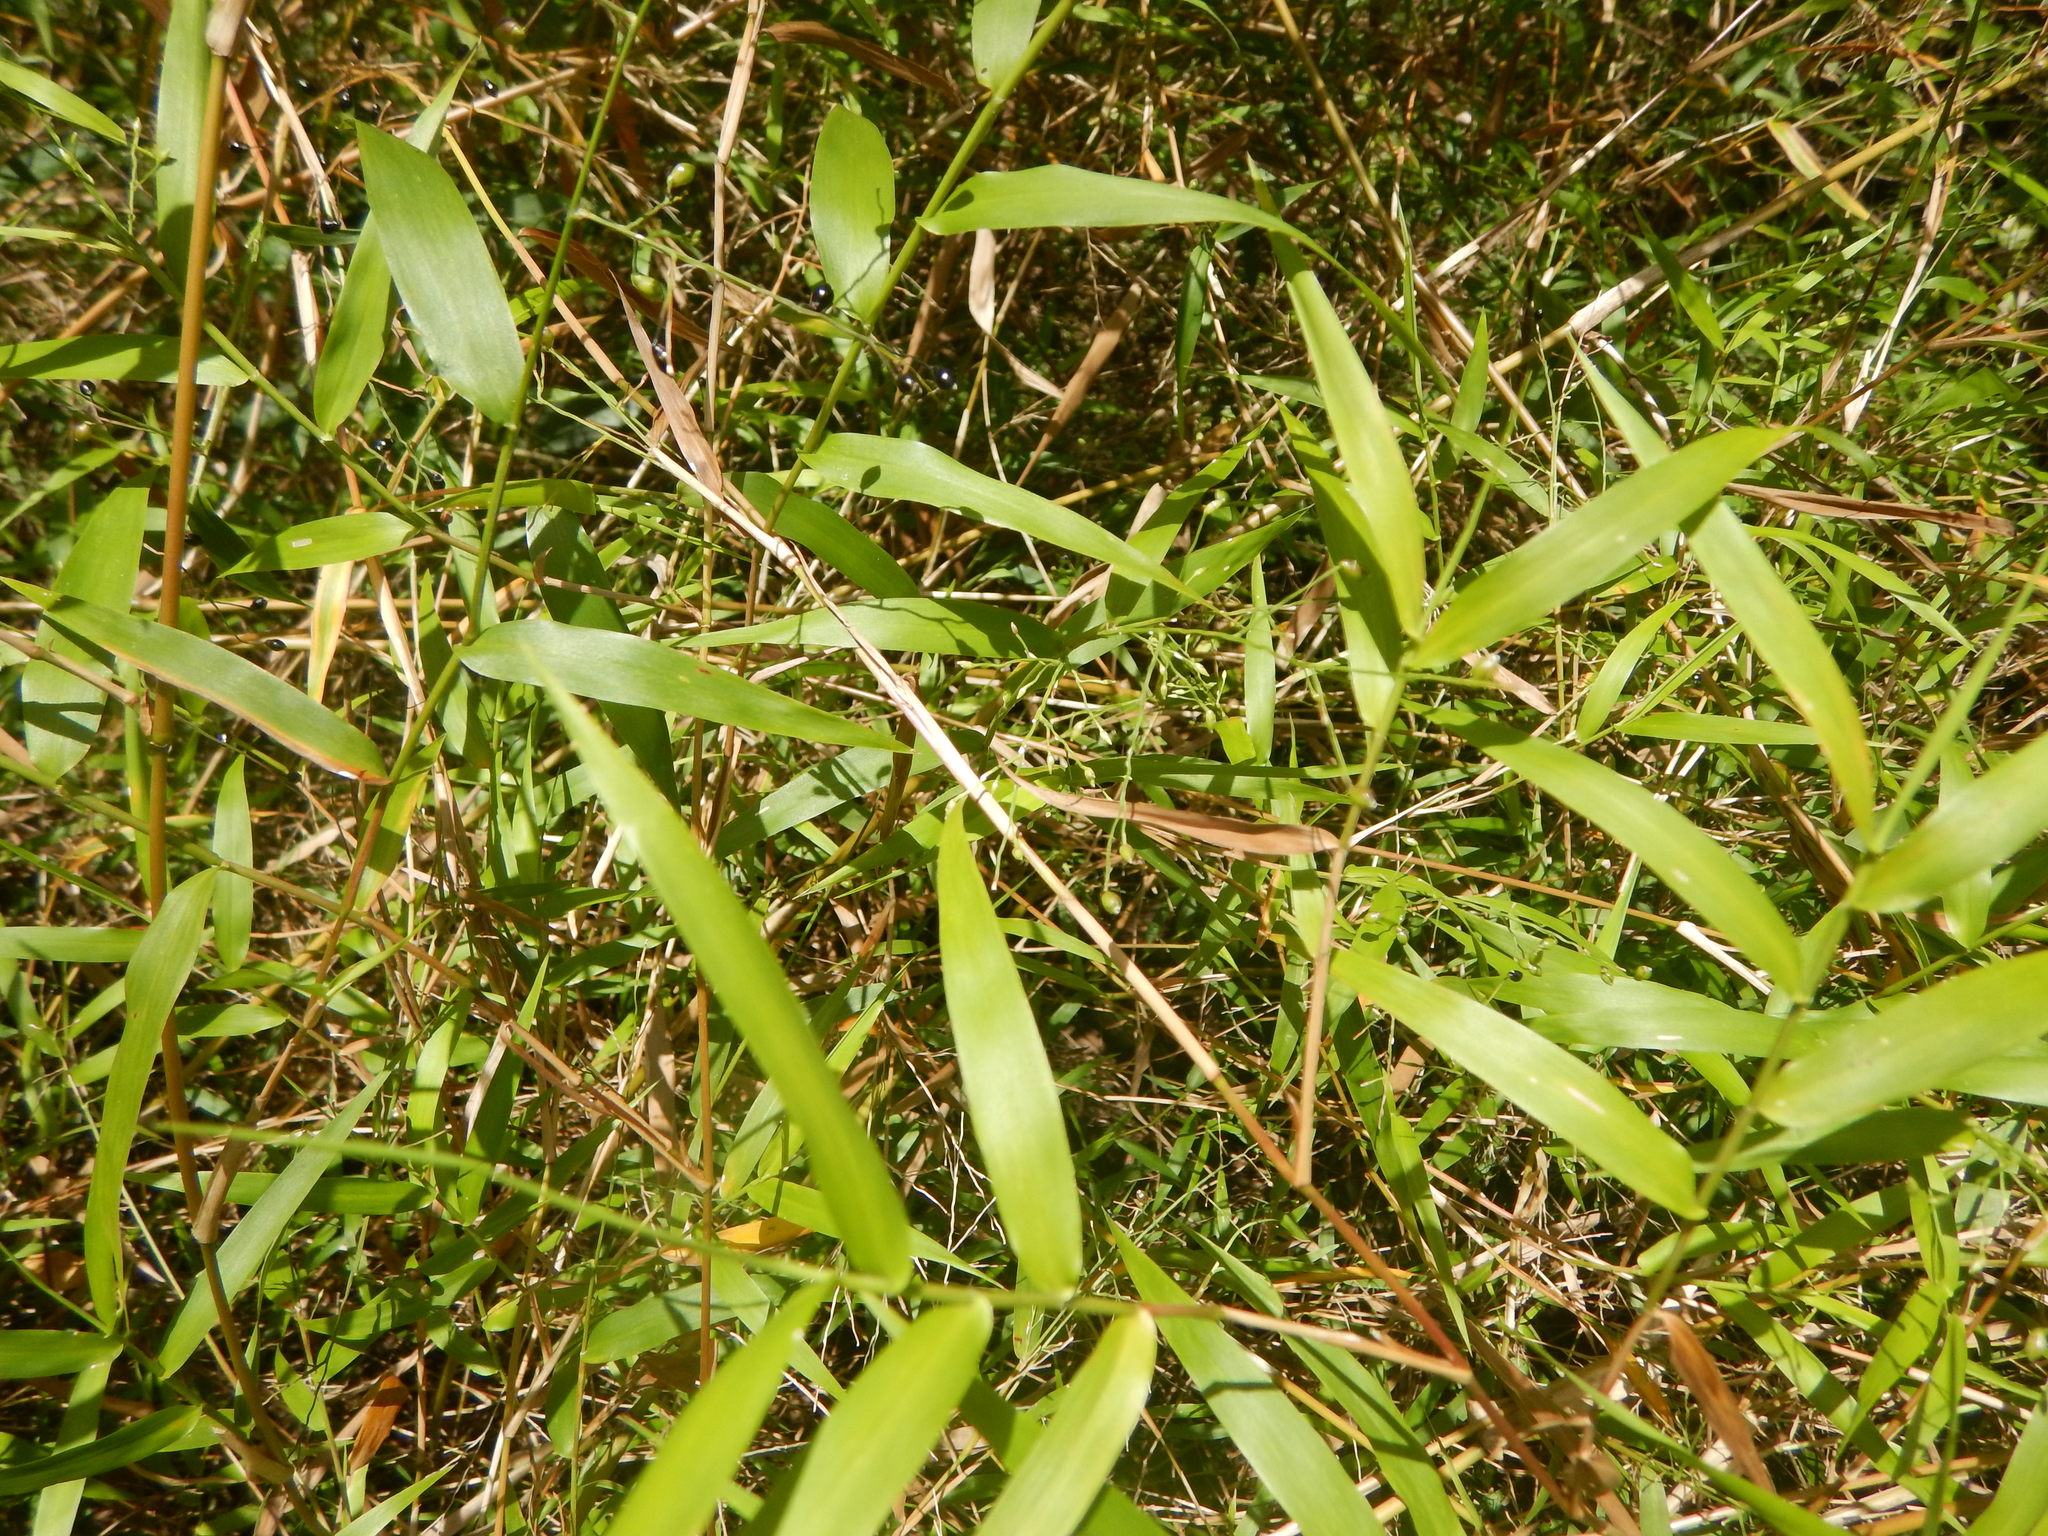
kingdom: Plantae
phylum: Tracheophyta
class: Liliopsida
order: Poales
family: Poaceae
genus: Lasiacis
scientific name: Lasiacis divaricata
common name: Smallcane
